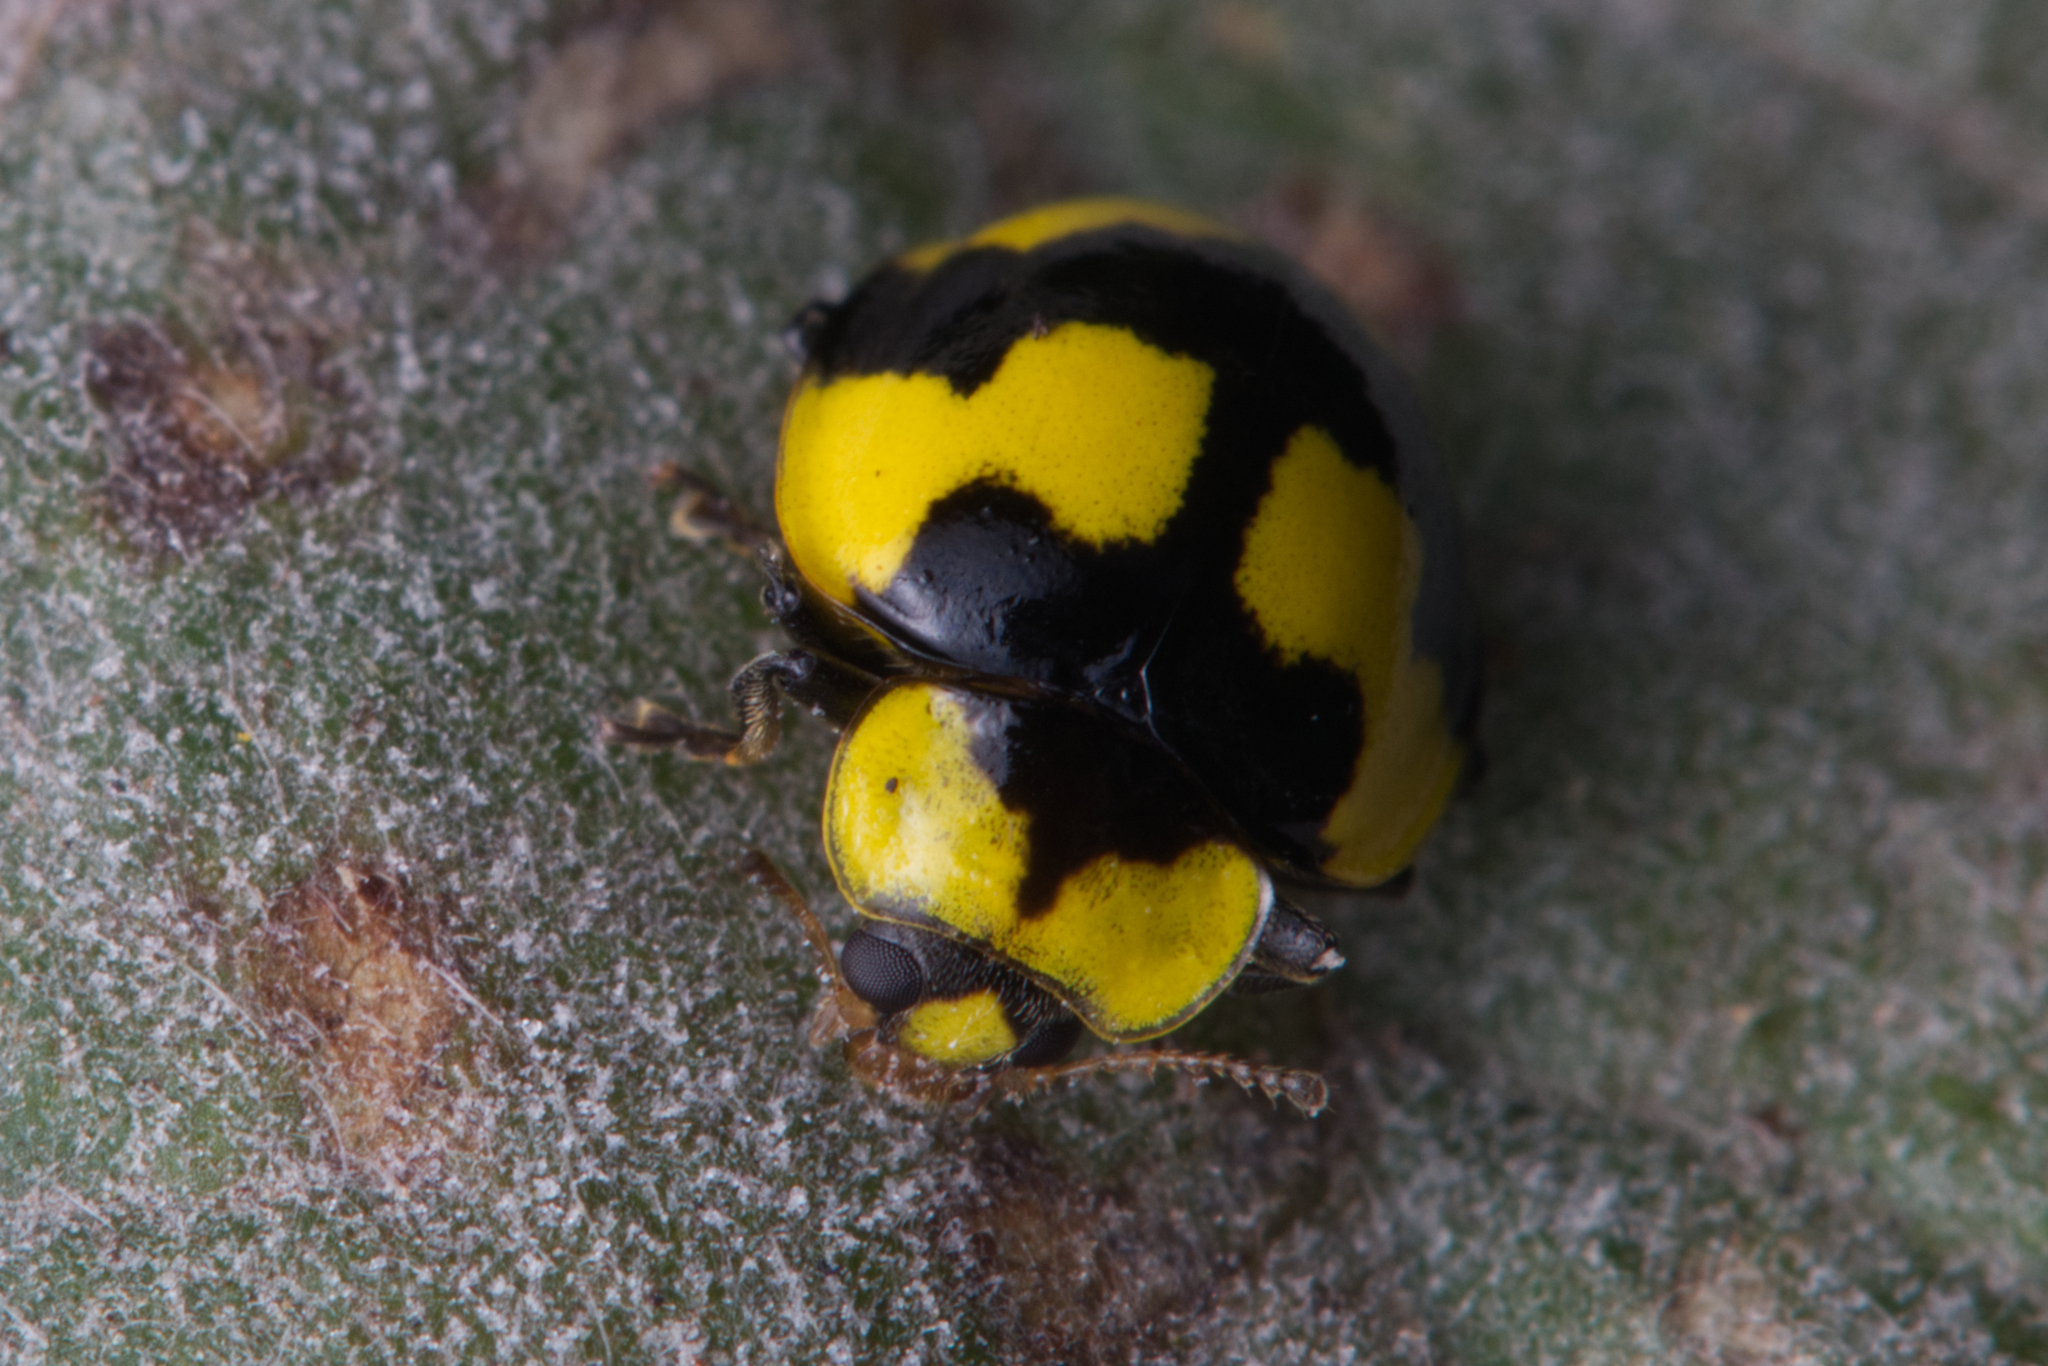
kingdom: Animalia
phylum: Arthropoda
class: Insecta
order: Coleoptera
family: Coccinellidae
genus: Illeis
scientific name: Illeis galbula
